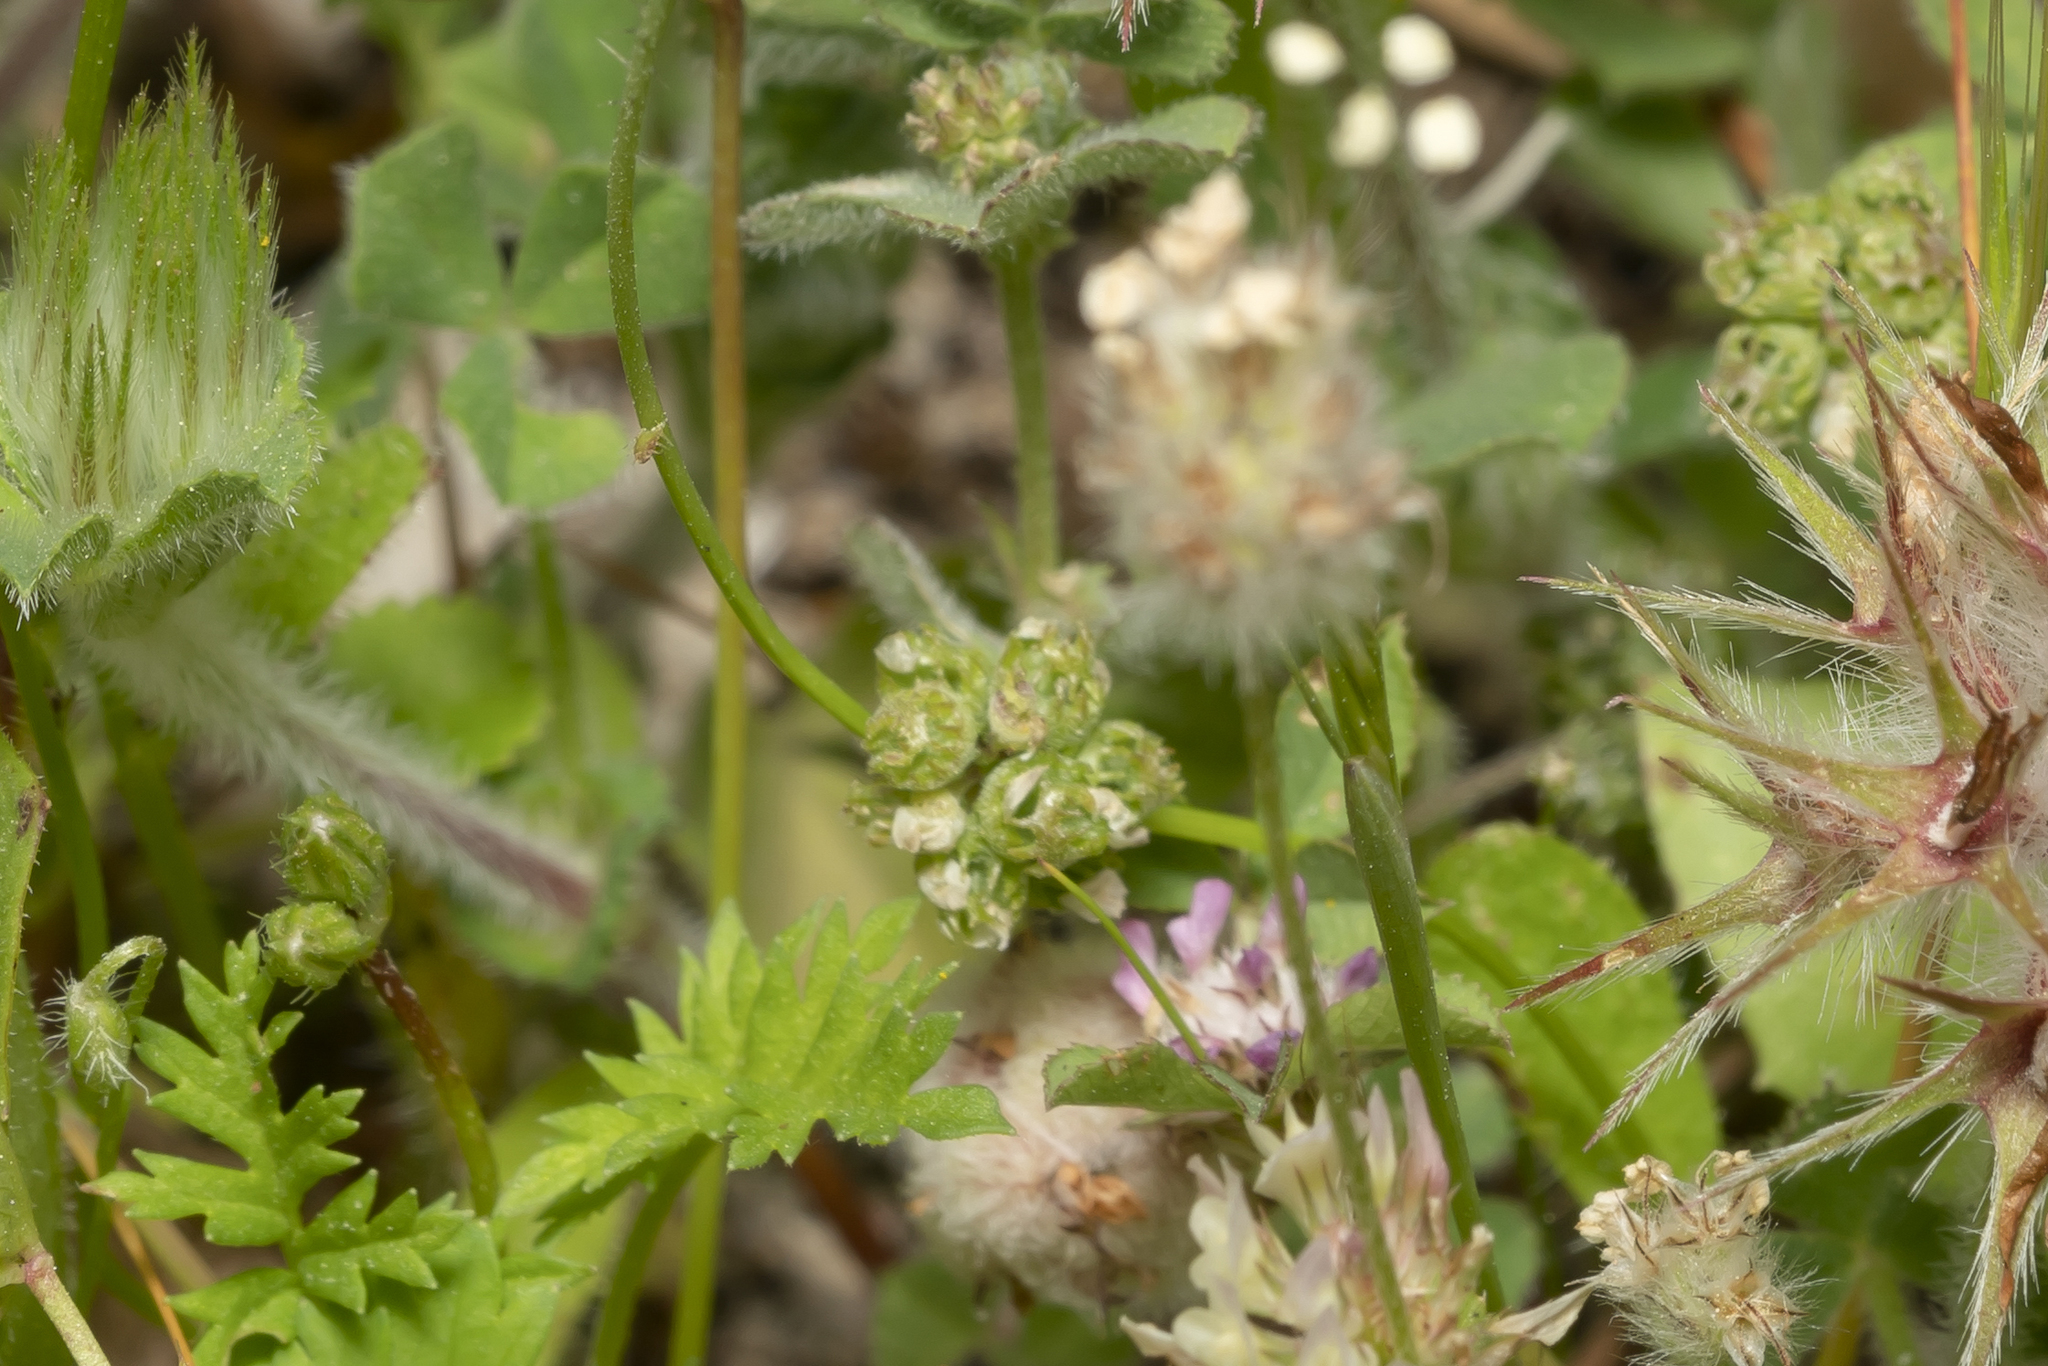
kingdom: Plantae
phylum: Tracheophyta
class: Magnoliopsida
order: Fabales
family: Fabaceae
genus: Medicago
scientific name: Medicago coronata
